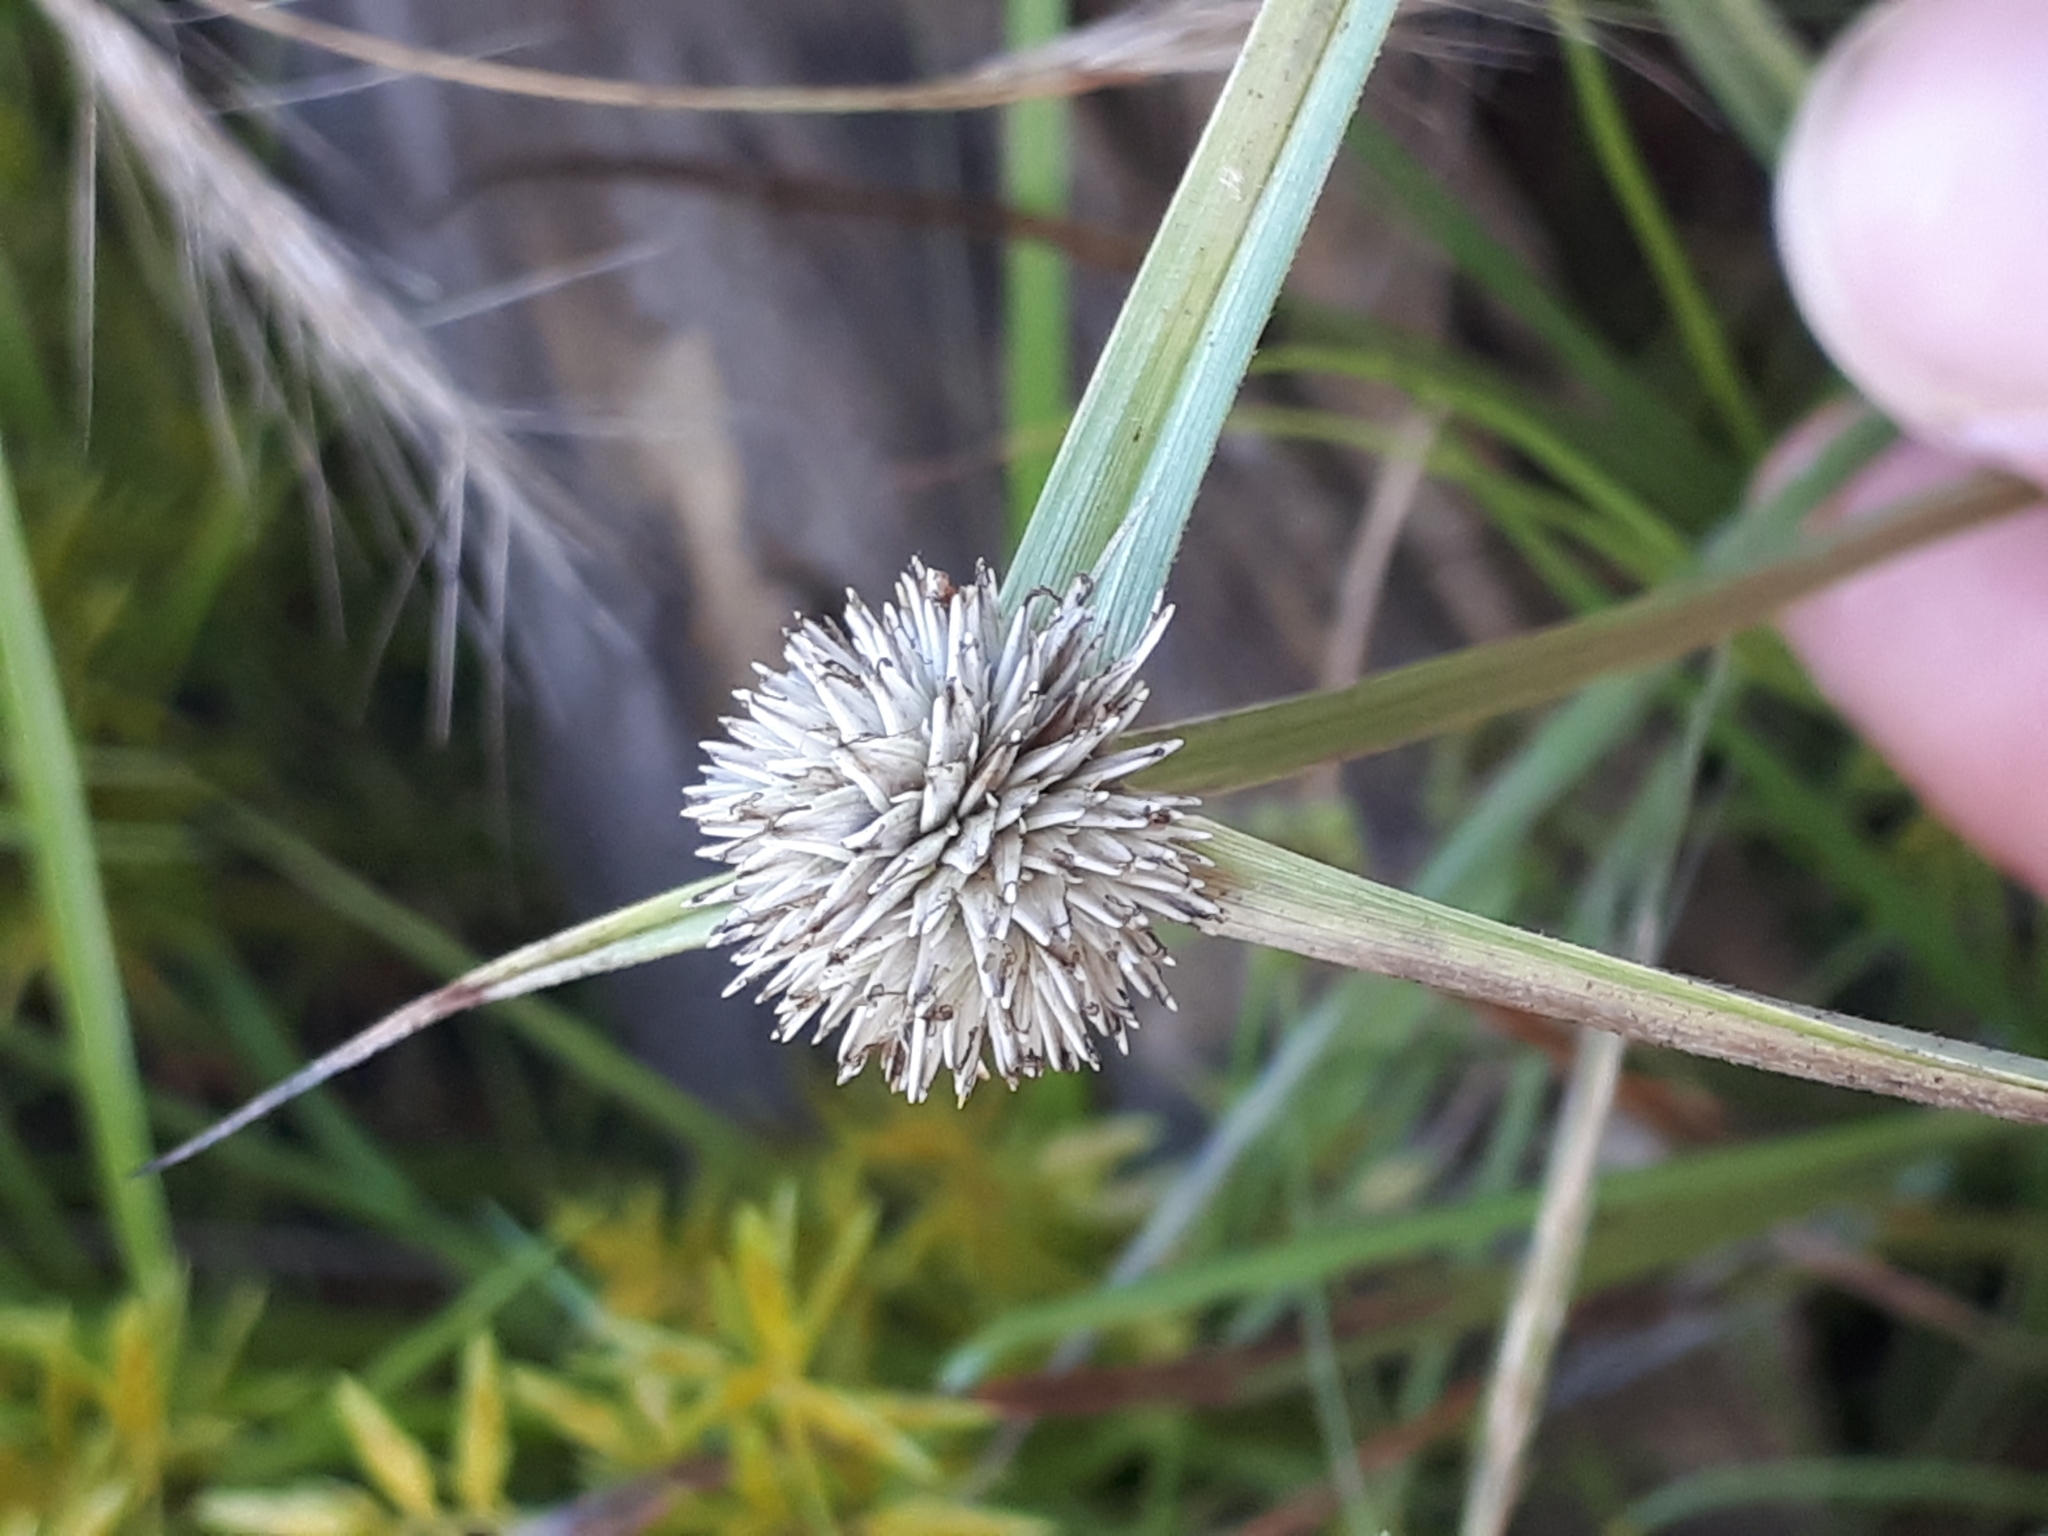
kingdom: Plantae
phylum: Tracheophyta
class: Liliopsida
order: Poales
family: Cyperaceae
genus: Cyperus
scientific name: Cyperus alatus
